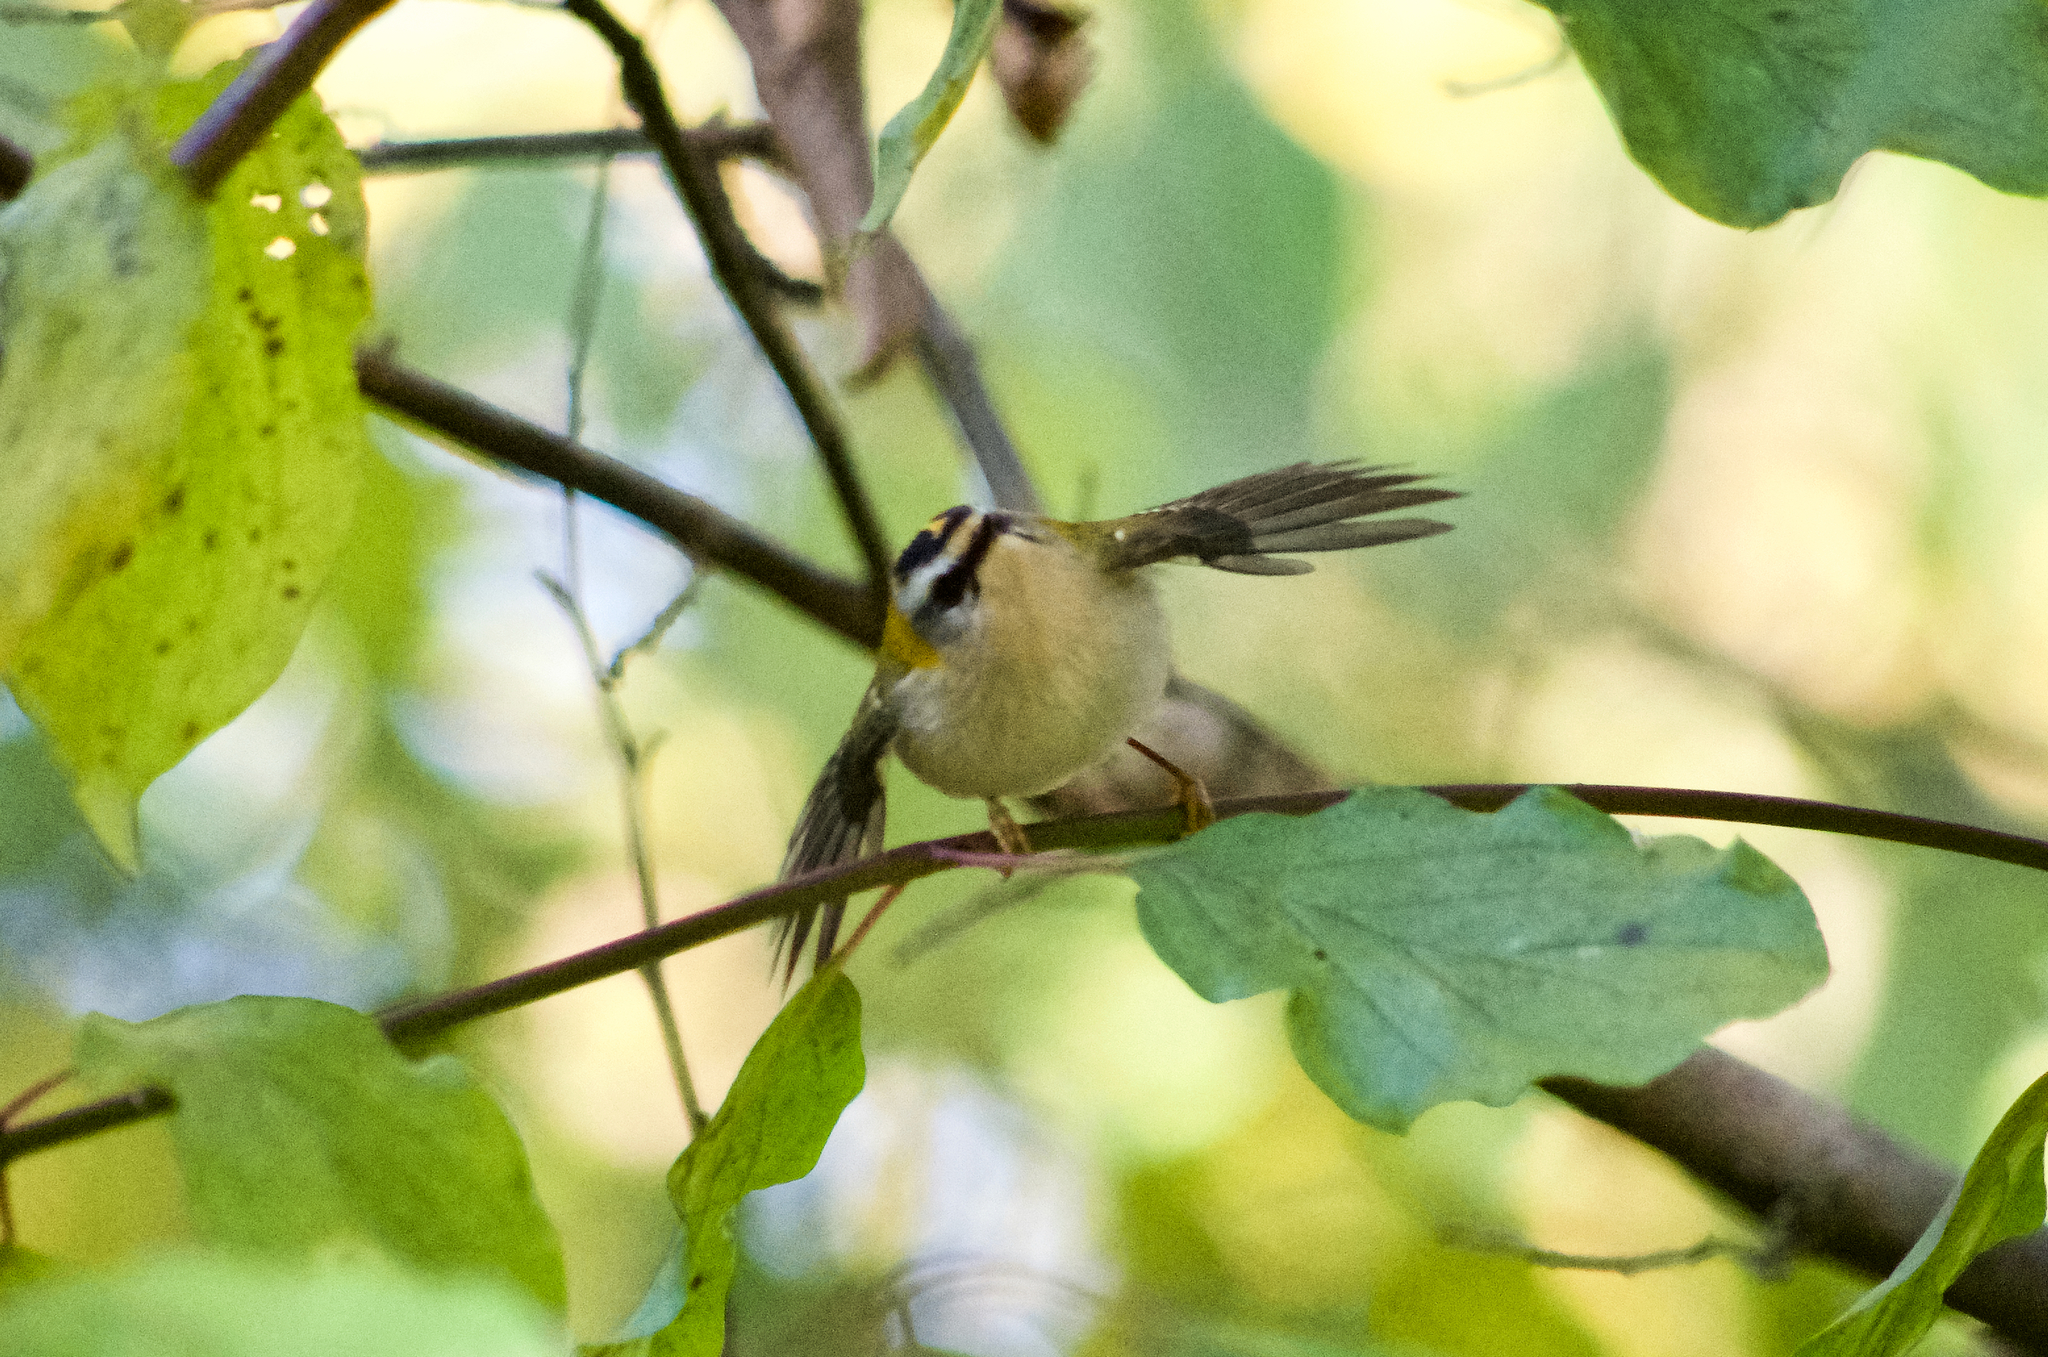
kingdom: Animalia
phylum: Chordata
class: Aves
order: Passeriformes
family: Regulidae
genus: Regulus
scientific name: Regulus ignicapilla
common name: Firecrest
